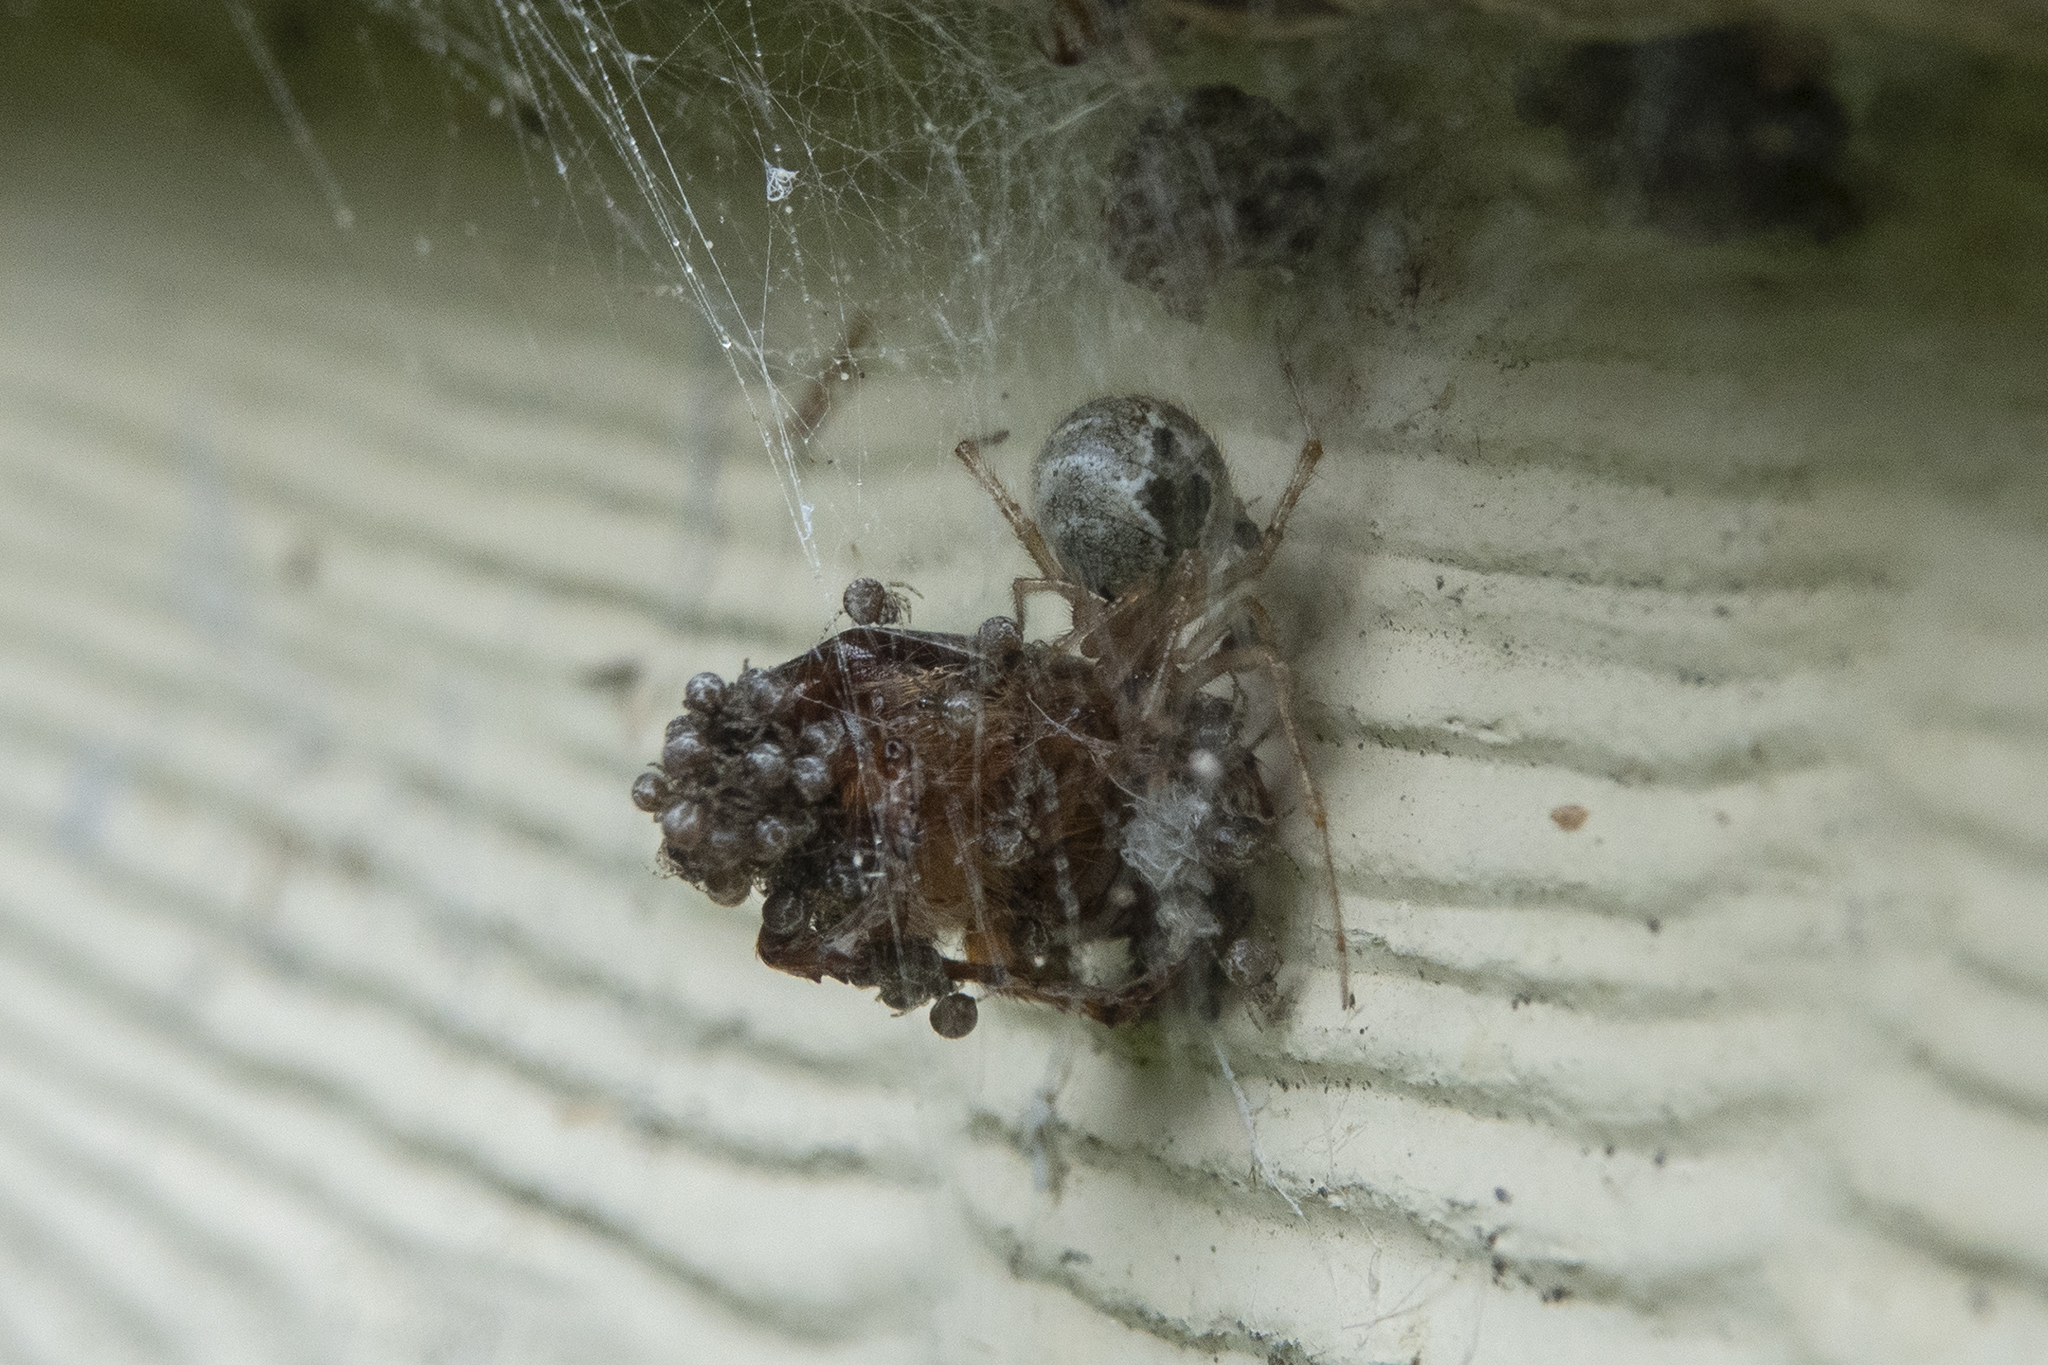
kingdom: Animalia
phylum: Arthropoda
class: Arachnida
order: Araneae
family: Theridiidae
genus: Cryptachaea
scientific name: Cryptachaea veruculata
